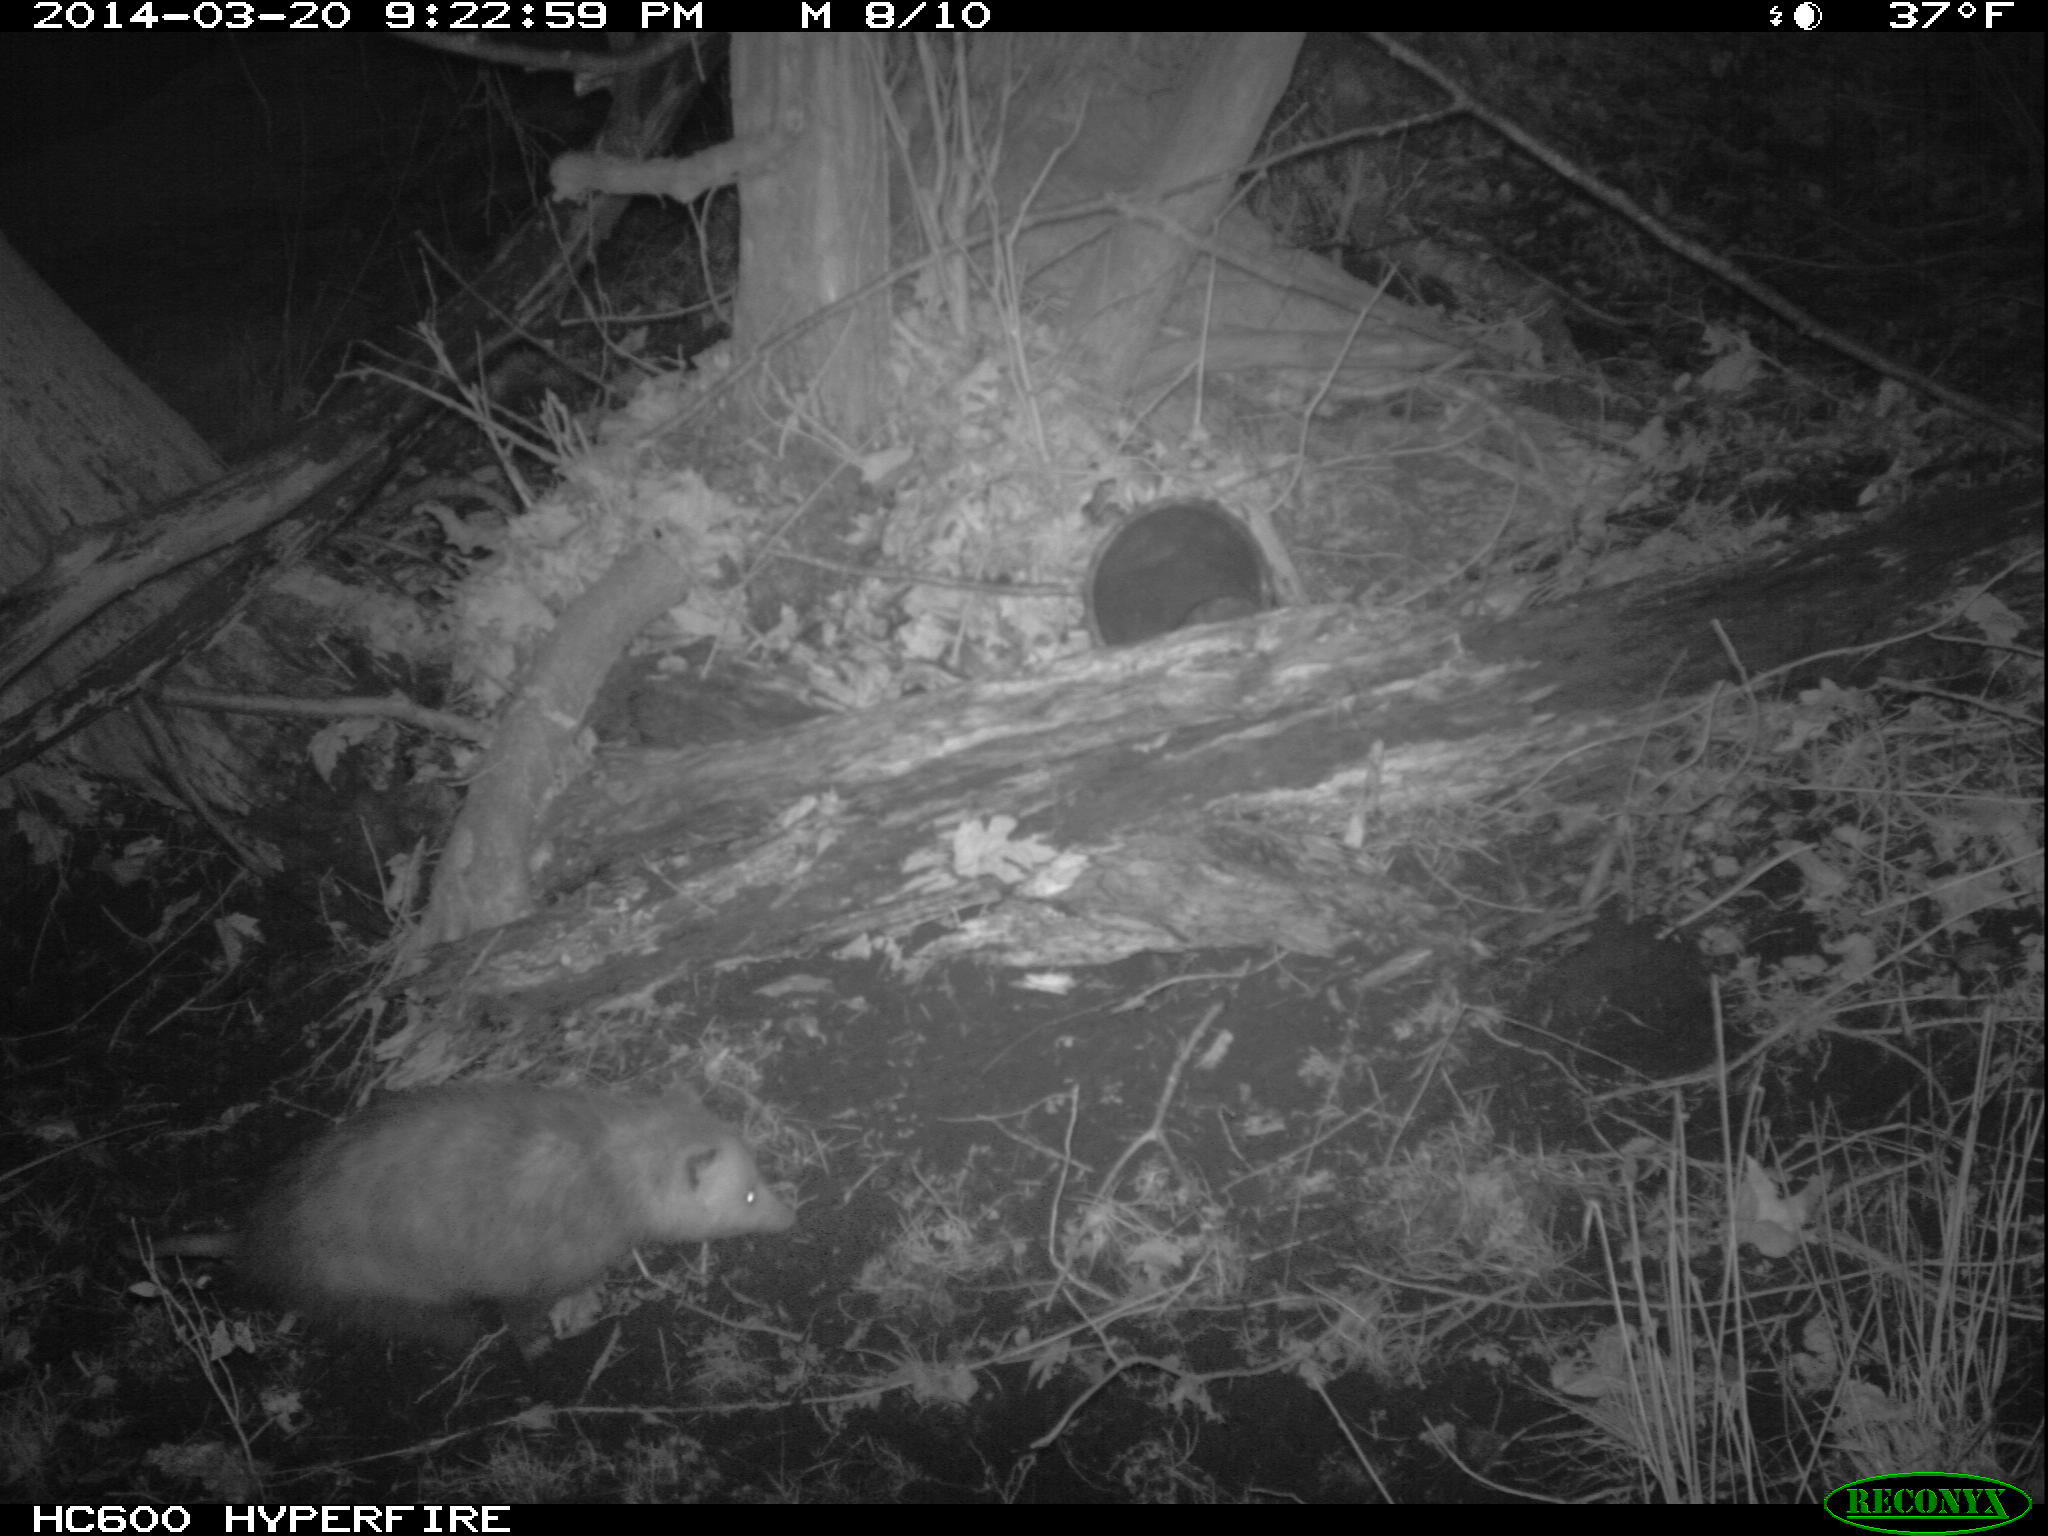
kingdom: Animalia
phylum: Chordata
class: Mammalia
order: Didelphimorphia
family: Didelphidae
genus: Didelphis
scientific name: Didelphis virginiana
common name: Virginia opossum
